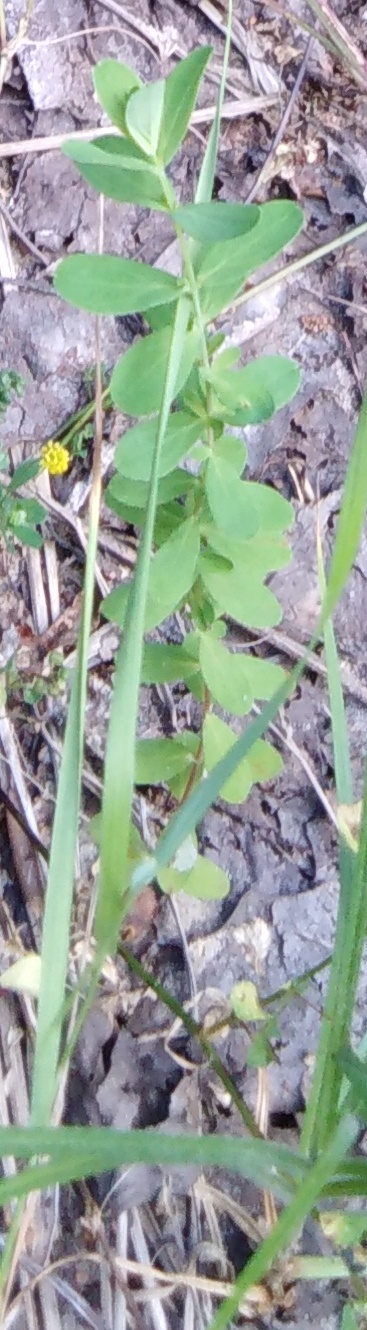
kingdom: Plantae
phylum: Tracheophyta
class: Magnoliopsida
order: Malpighiales
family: Hypericaceae
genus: Hypericum
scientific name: Hypericum perforatum
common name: Common st. johnswort
